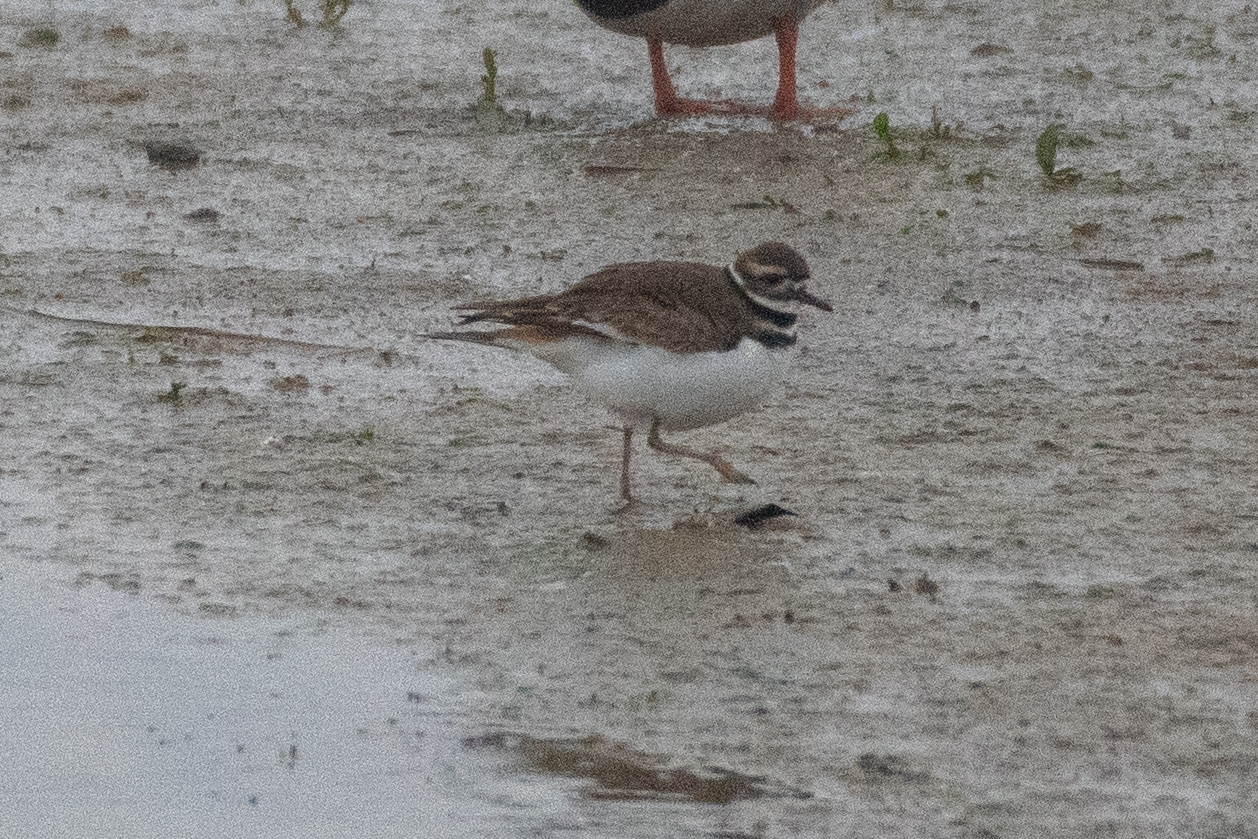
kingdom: Animalia
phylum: Chordata
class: Aves
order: Charadriiformes
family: Charadriidae
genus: Charadrius
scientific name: Charadrius vociferus
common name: Killdeer
